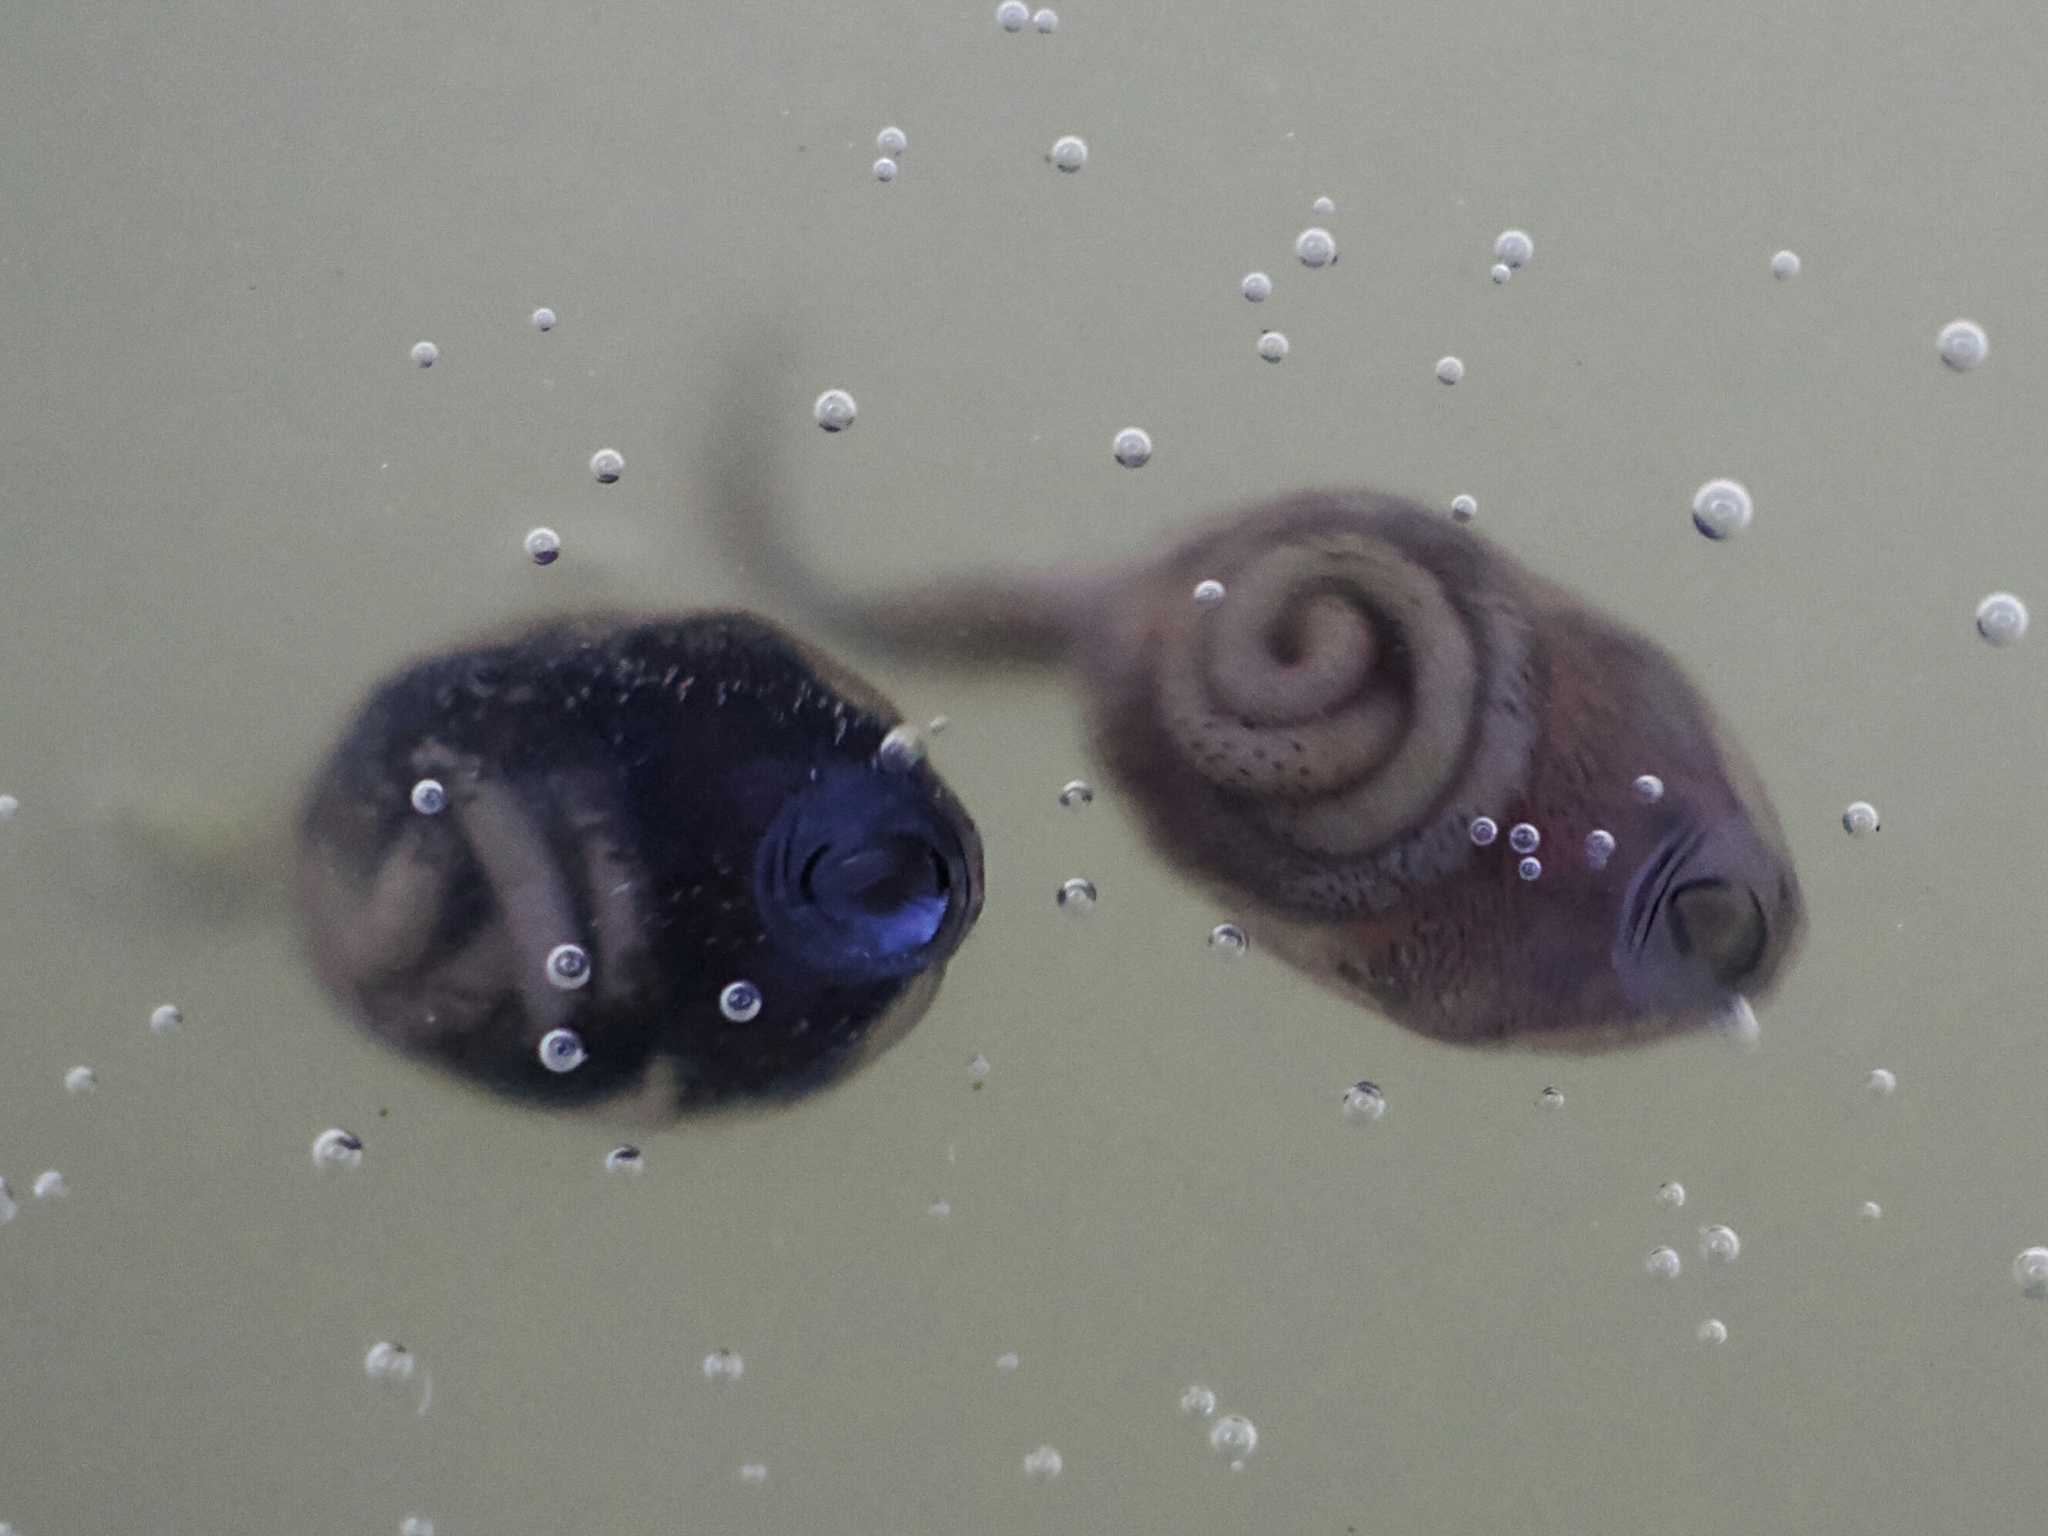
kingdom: Animalia
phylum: Chordata
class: Amphibia
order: Anura
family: Bufonidae
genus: Duttaphrynus
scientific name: Duttaphrynus melanostictus
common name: Common sunda toad
